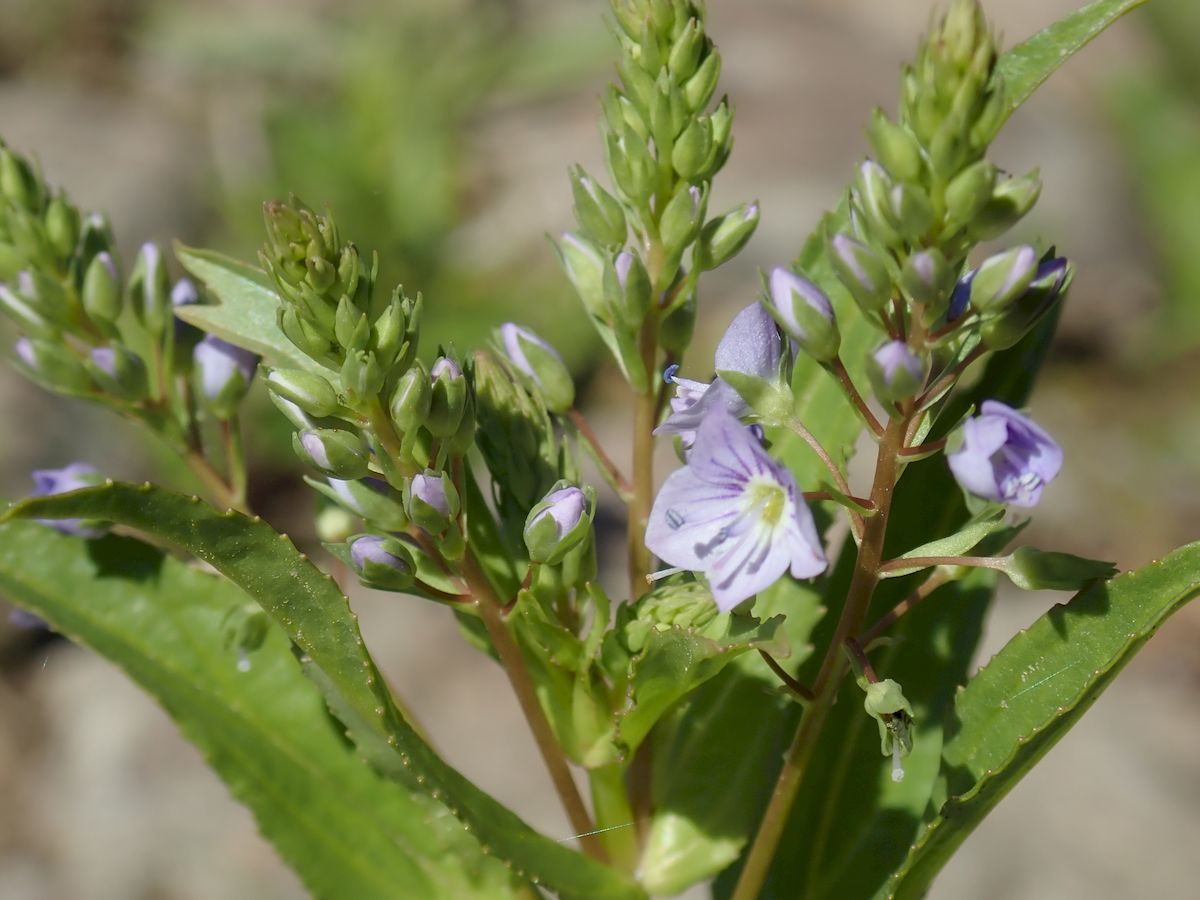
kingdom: Plantae
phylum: Tracheophyta
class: Magnoliopsida
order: Lamiales
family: Plantaginaceae
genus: Veronica
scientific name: Veronica anagallis-aquatica
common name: Water speedwell
